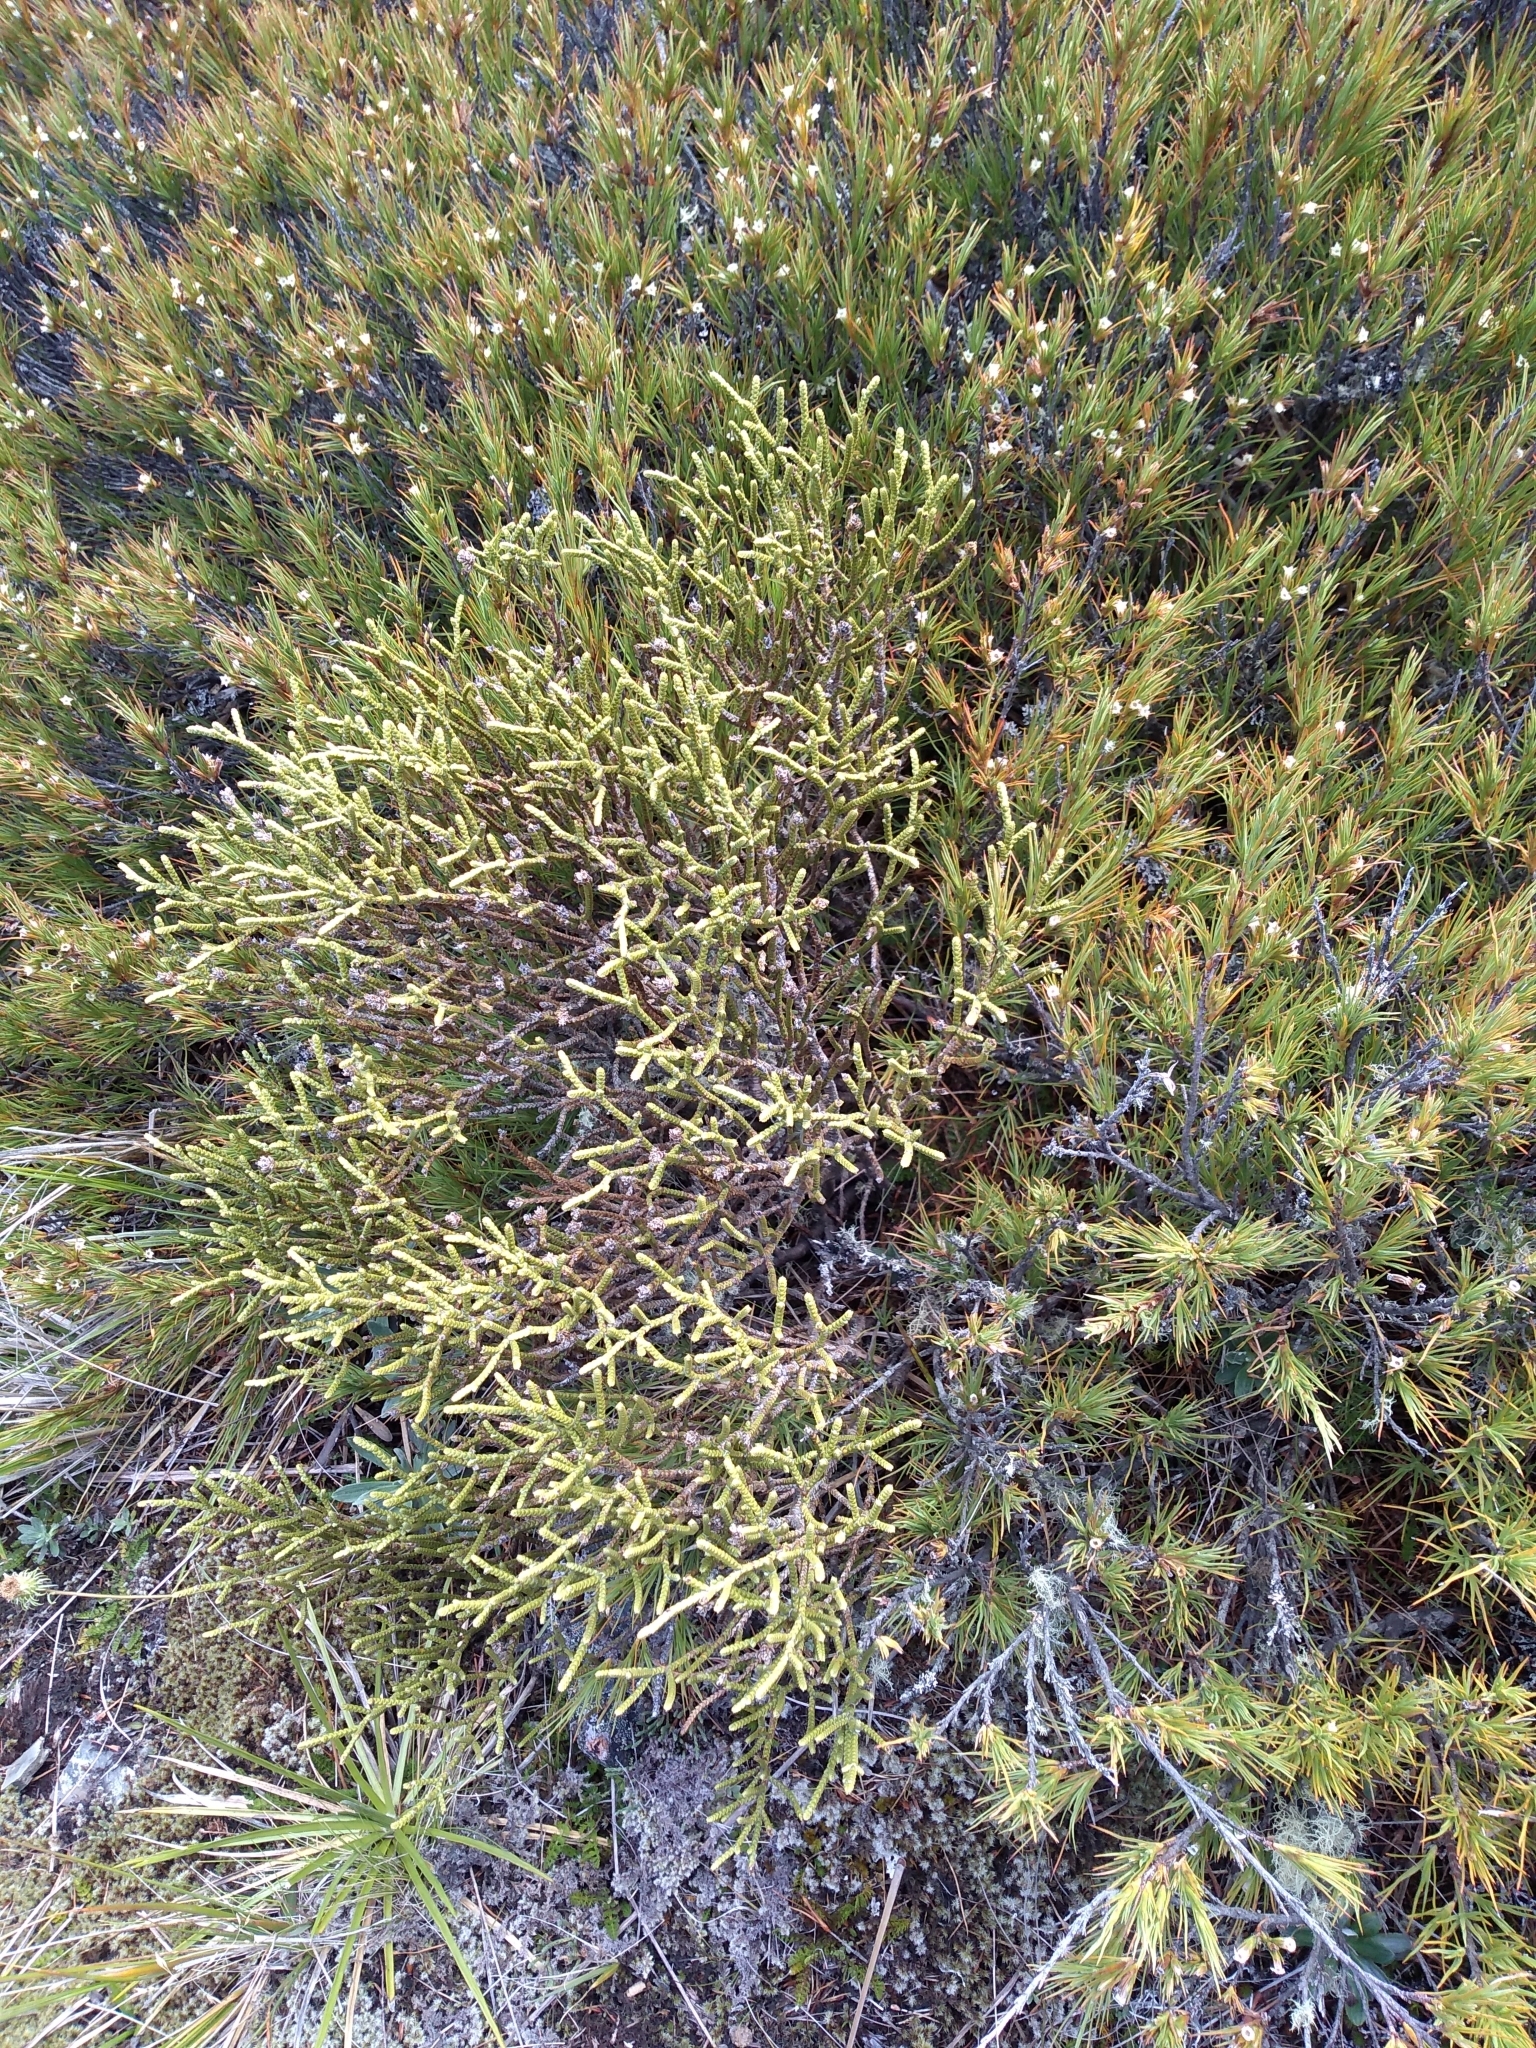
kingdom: Plantae
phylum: Tracheophyta
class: Magnoliopsida
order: Lamiales
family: Plantaginaceae
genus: Veronica
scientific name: Veronica lycopodioides
